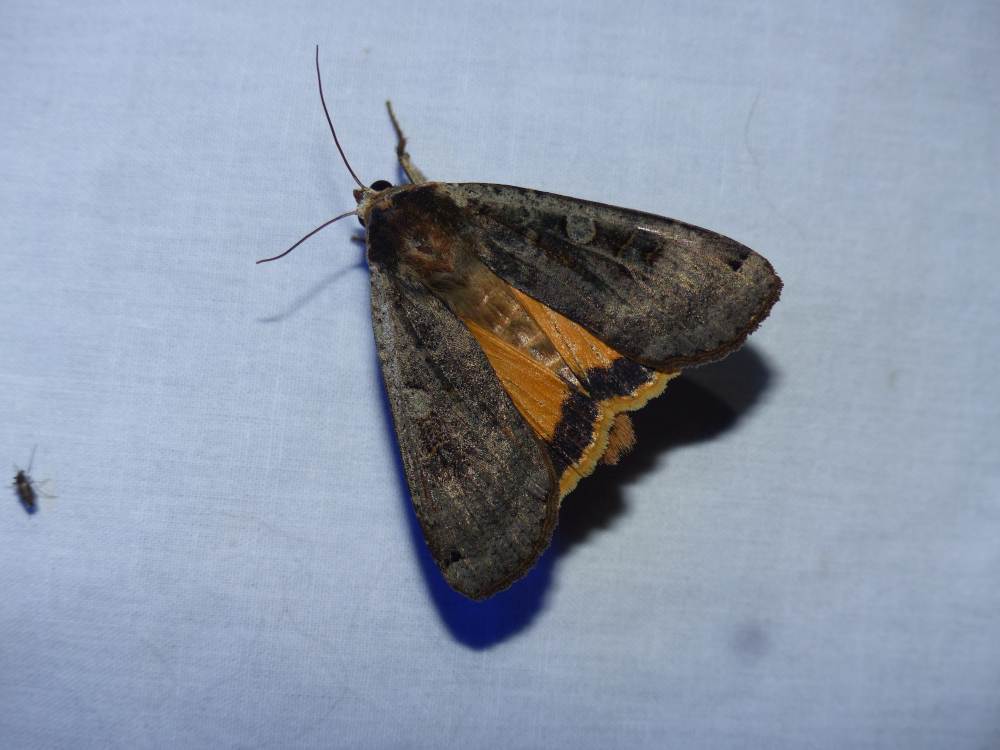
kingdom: Animalia
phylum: Arthropoda
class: Insecta
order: Lepidoptera
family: Noctuidae
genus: Noctua
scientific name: Noctua pronuba
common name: Large yellow underwing
